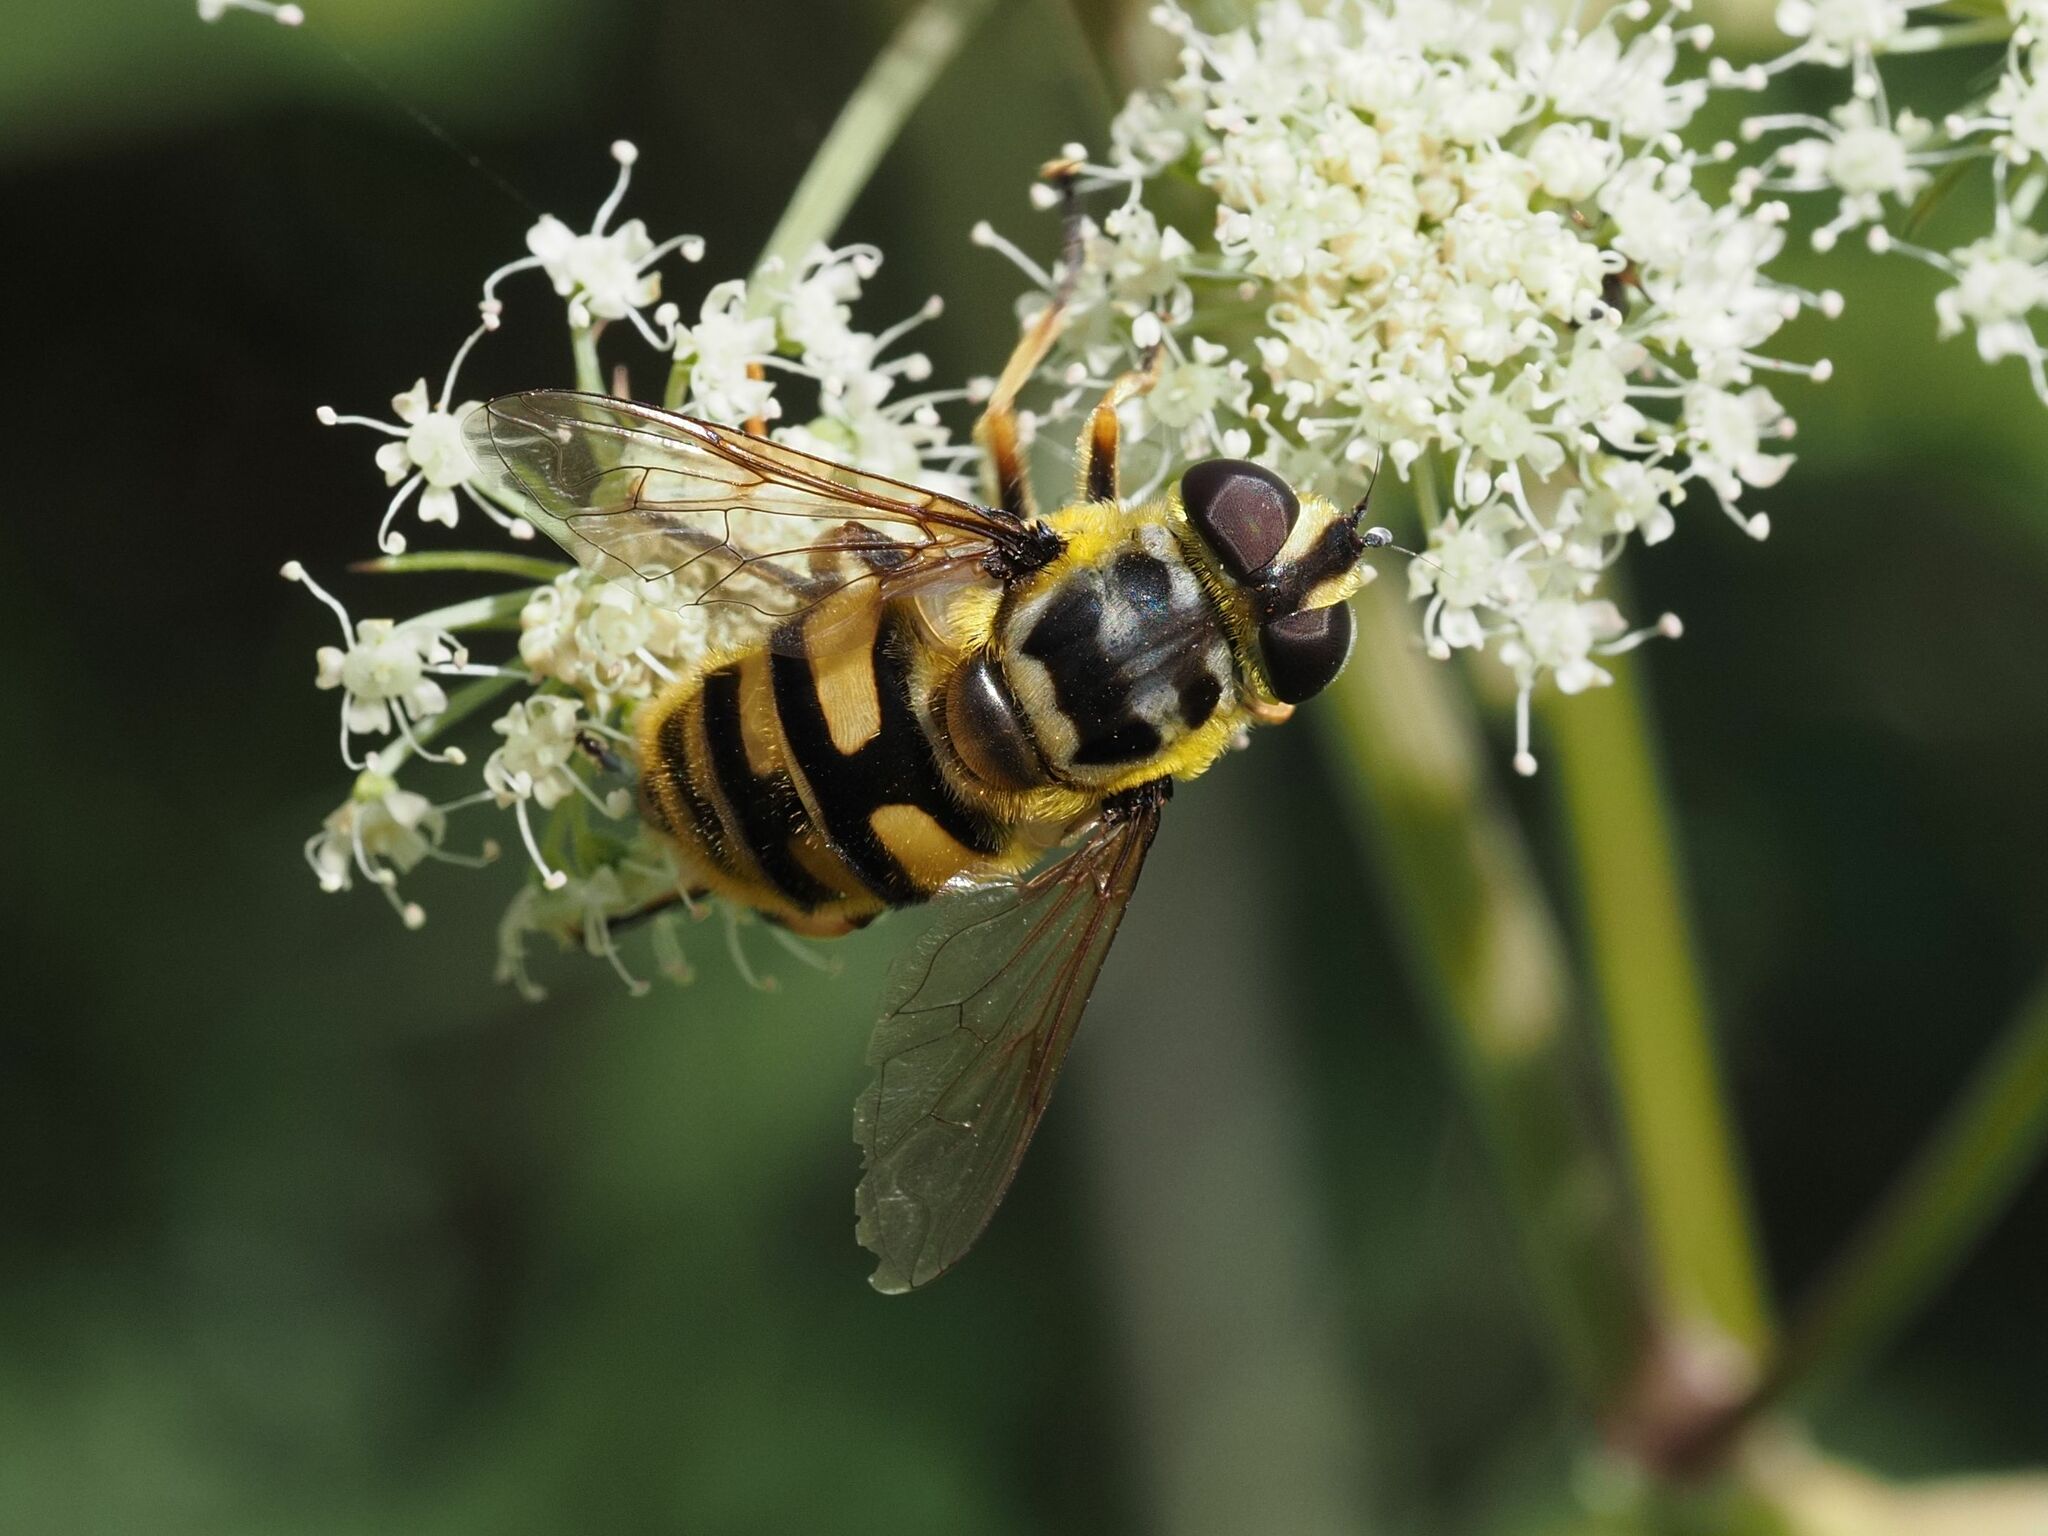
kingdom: Animalia
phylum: Arthropoda
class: Insecta
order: Diptera
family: Syrphidae
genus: Myathropa
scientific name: Myathropa florea
